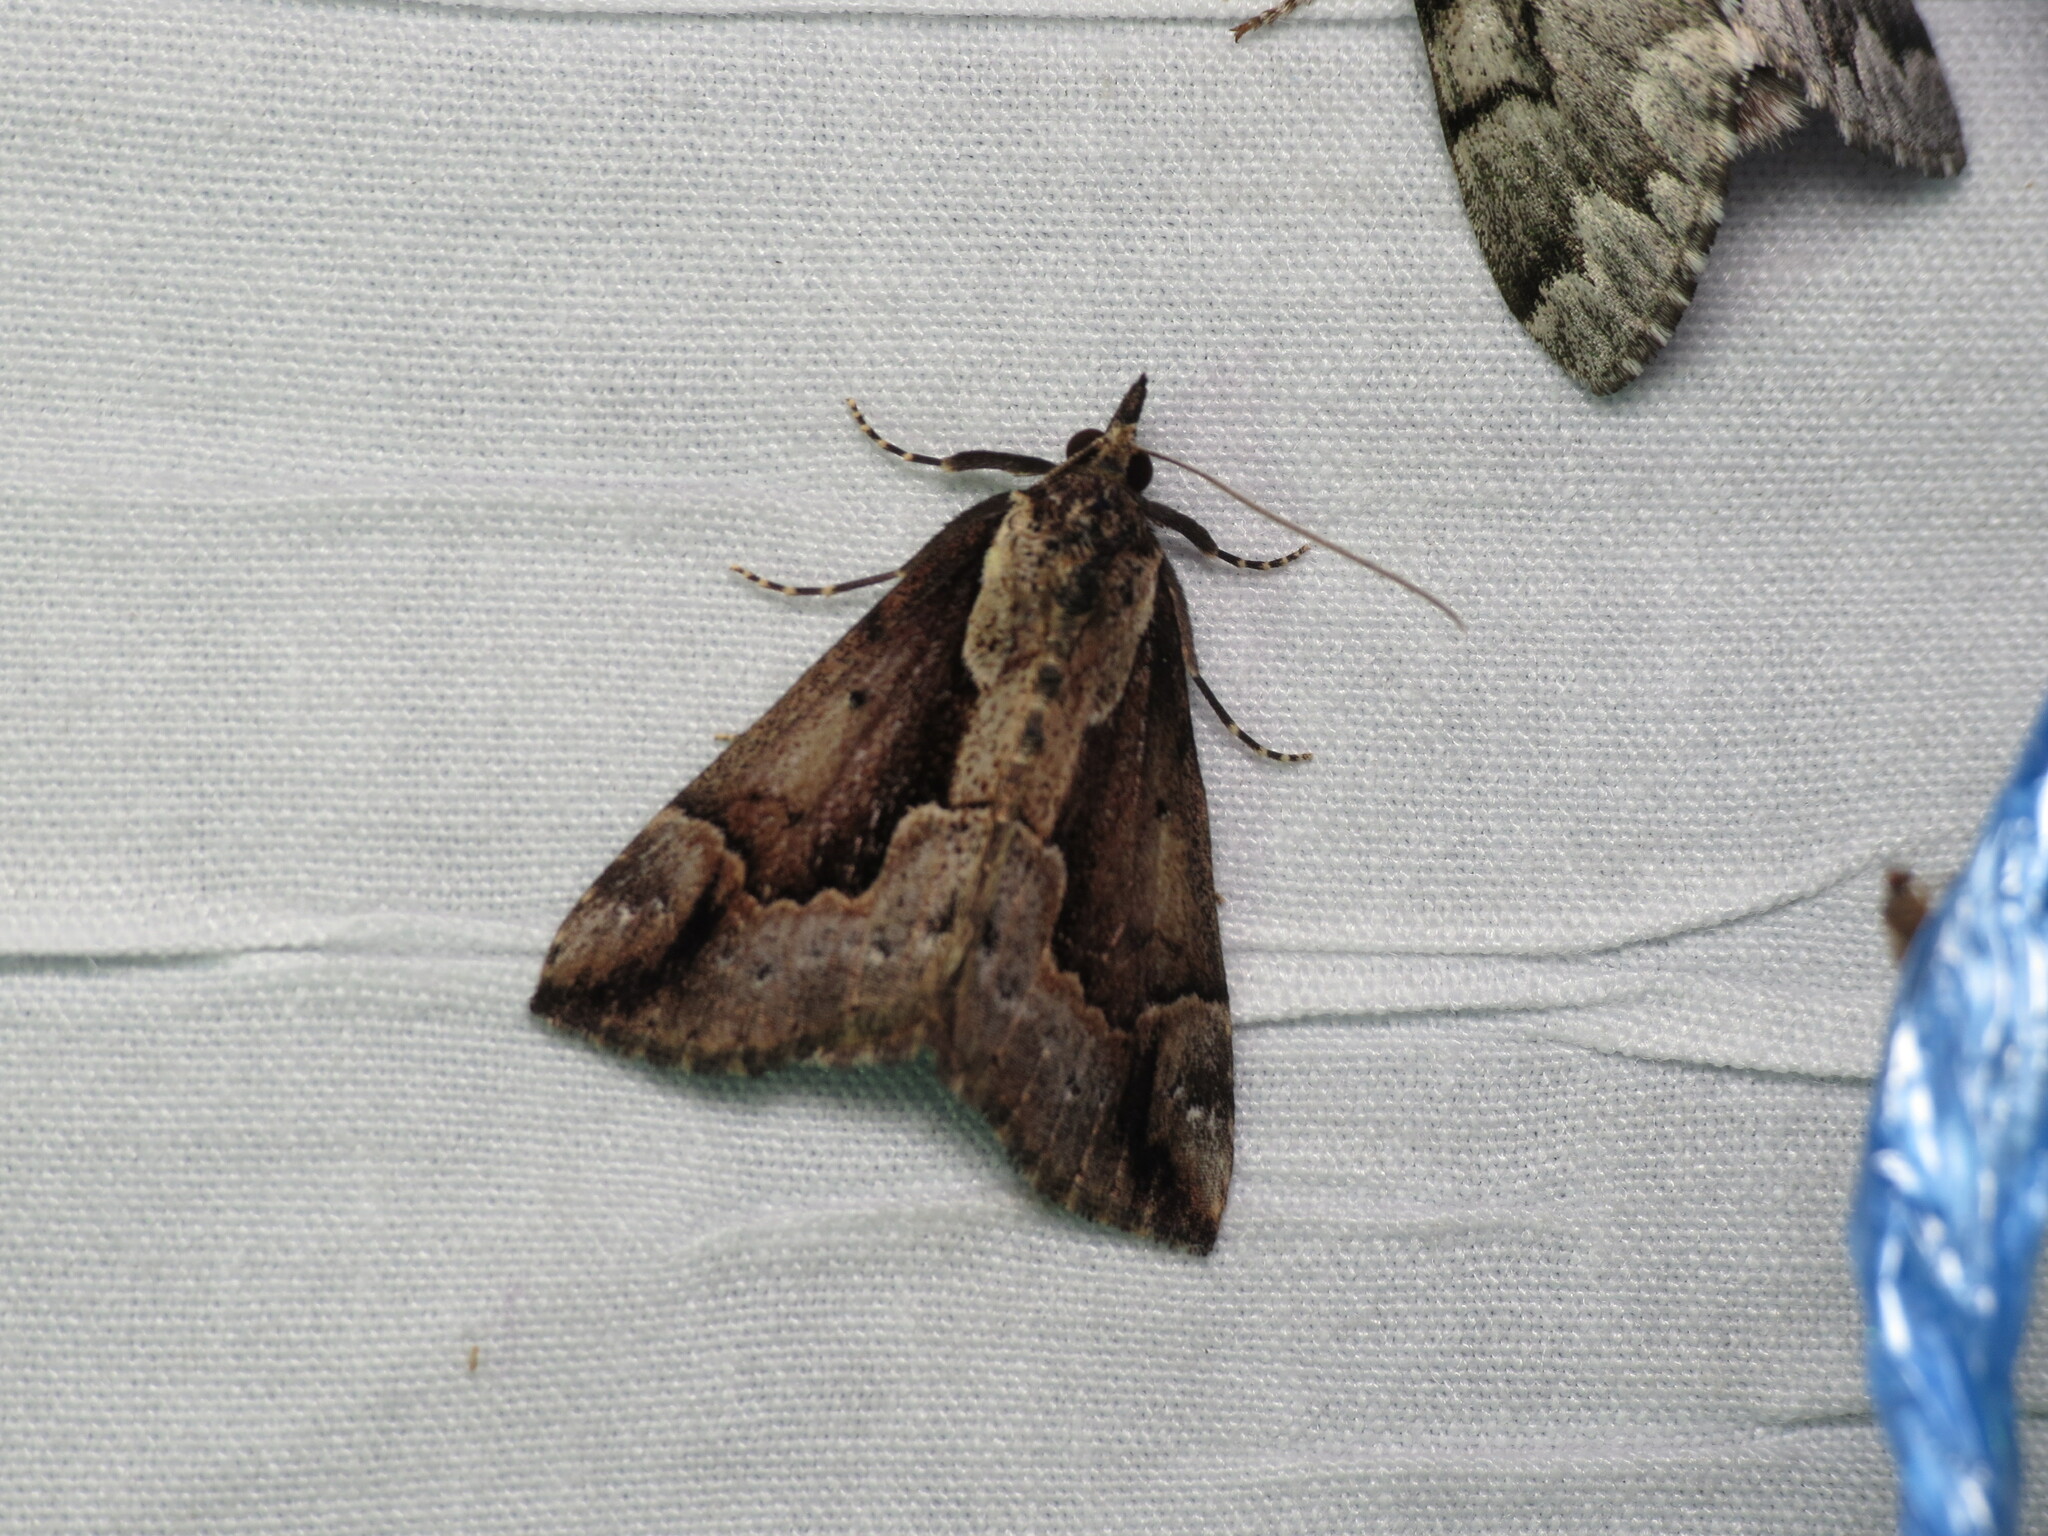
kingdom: Animalia
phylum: Arthropoda
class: Insecta
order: Lepidoptera
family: Erebidae
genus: Hypena
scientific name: Hypena baltimoralis
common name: Baltimore snout
